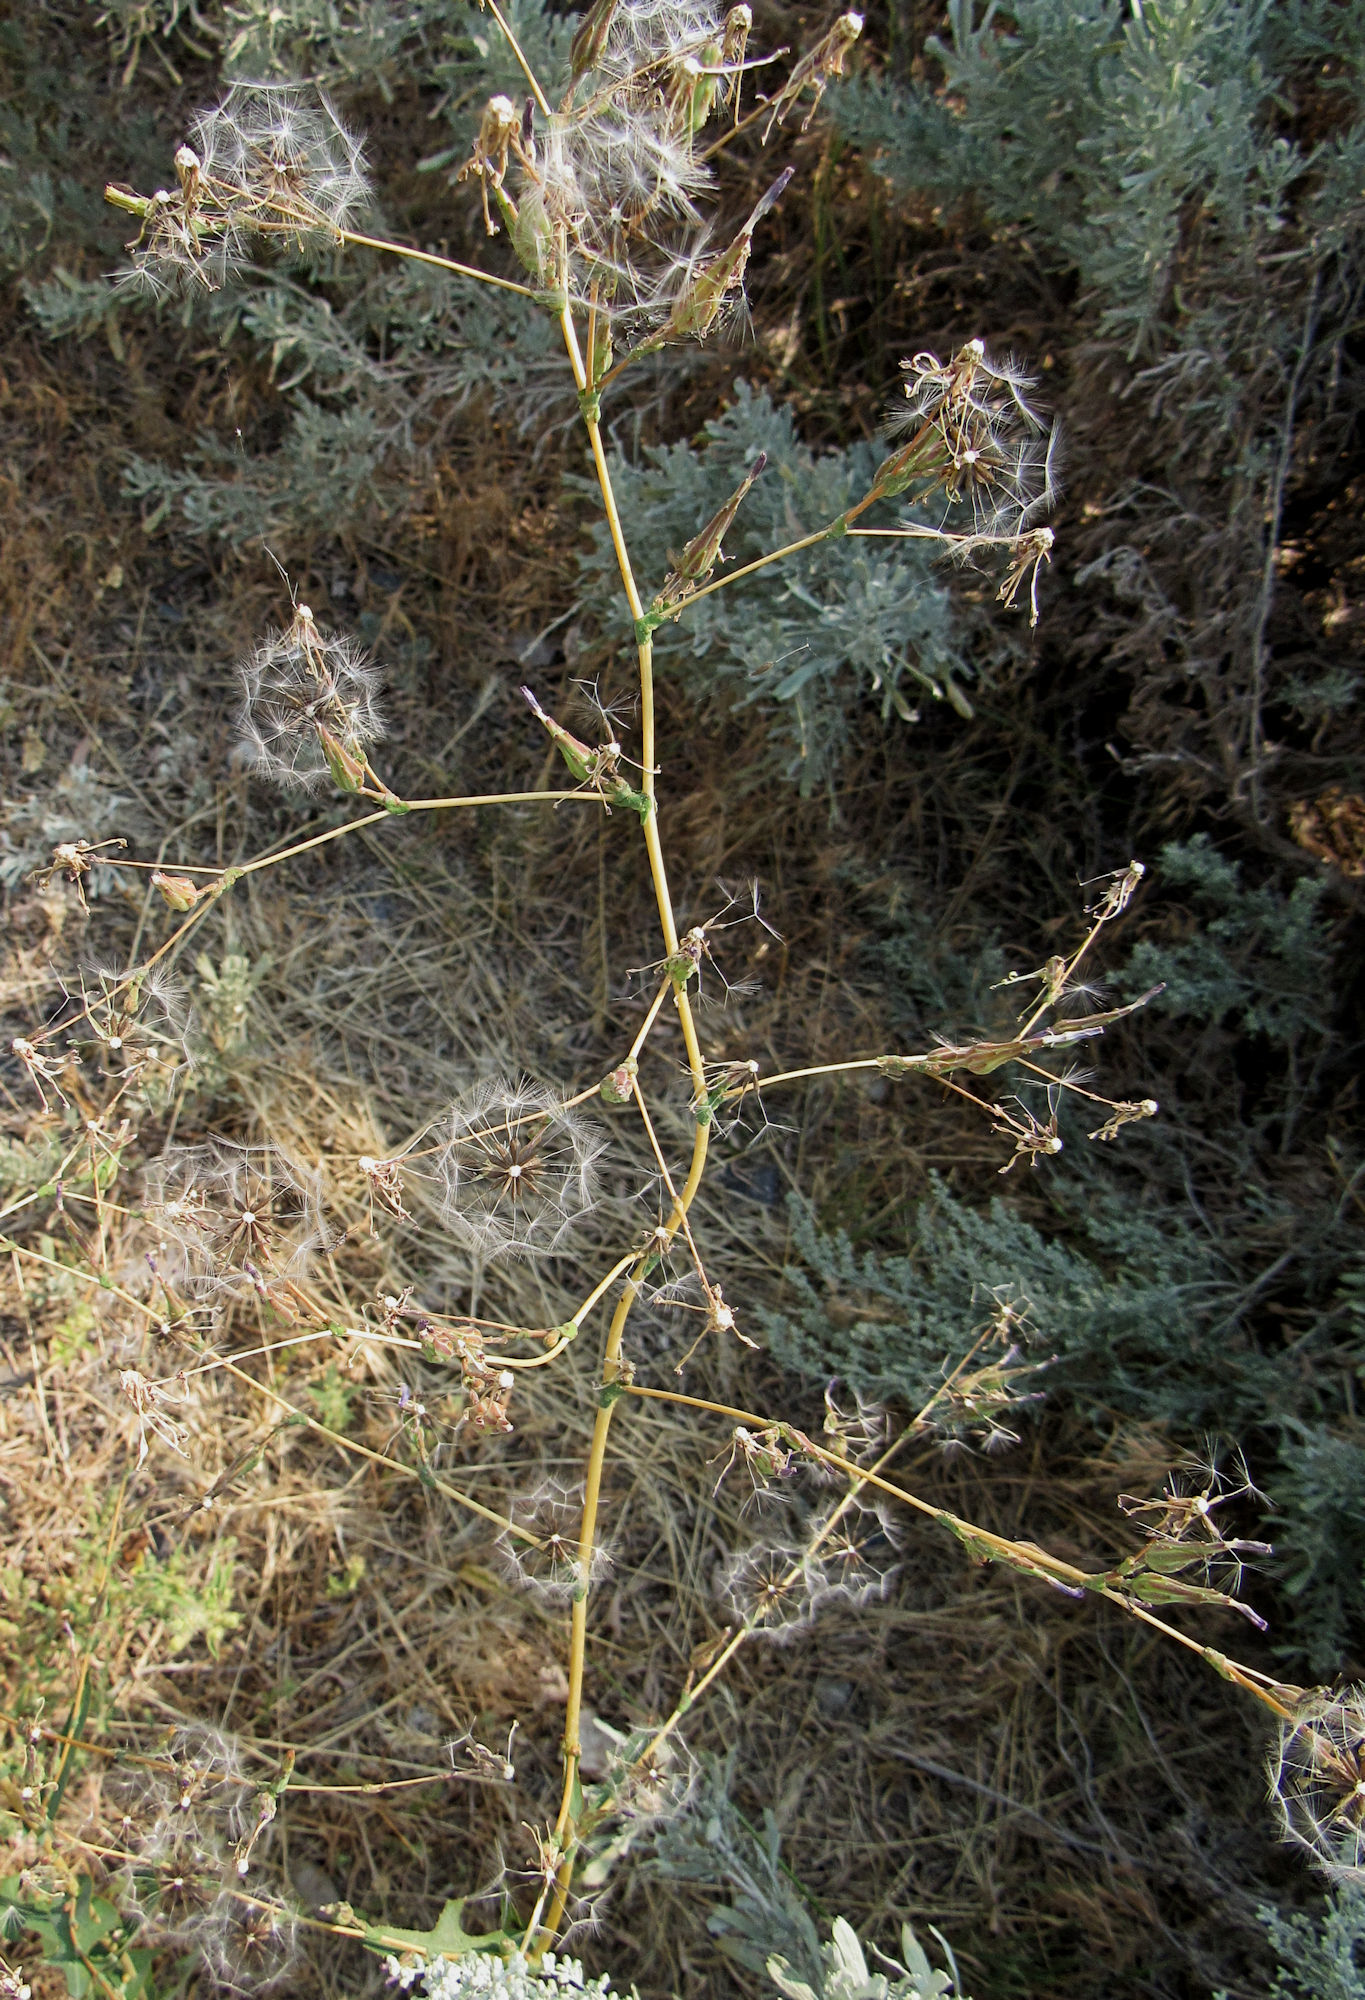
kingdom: Plantae
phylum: Tracheophyta
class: Magnoliopsida
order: Asterales
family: Asteraceae
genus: Lactuca
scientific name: Lactuca serriola
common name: Prickly lettuce
